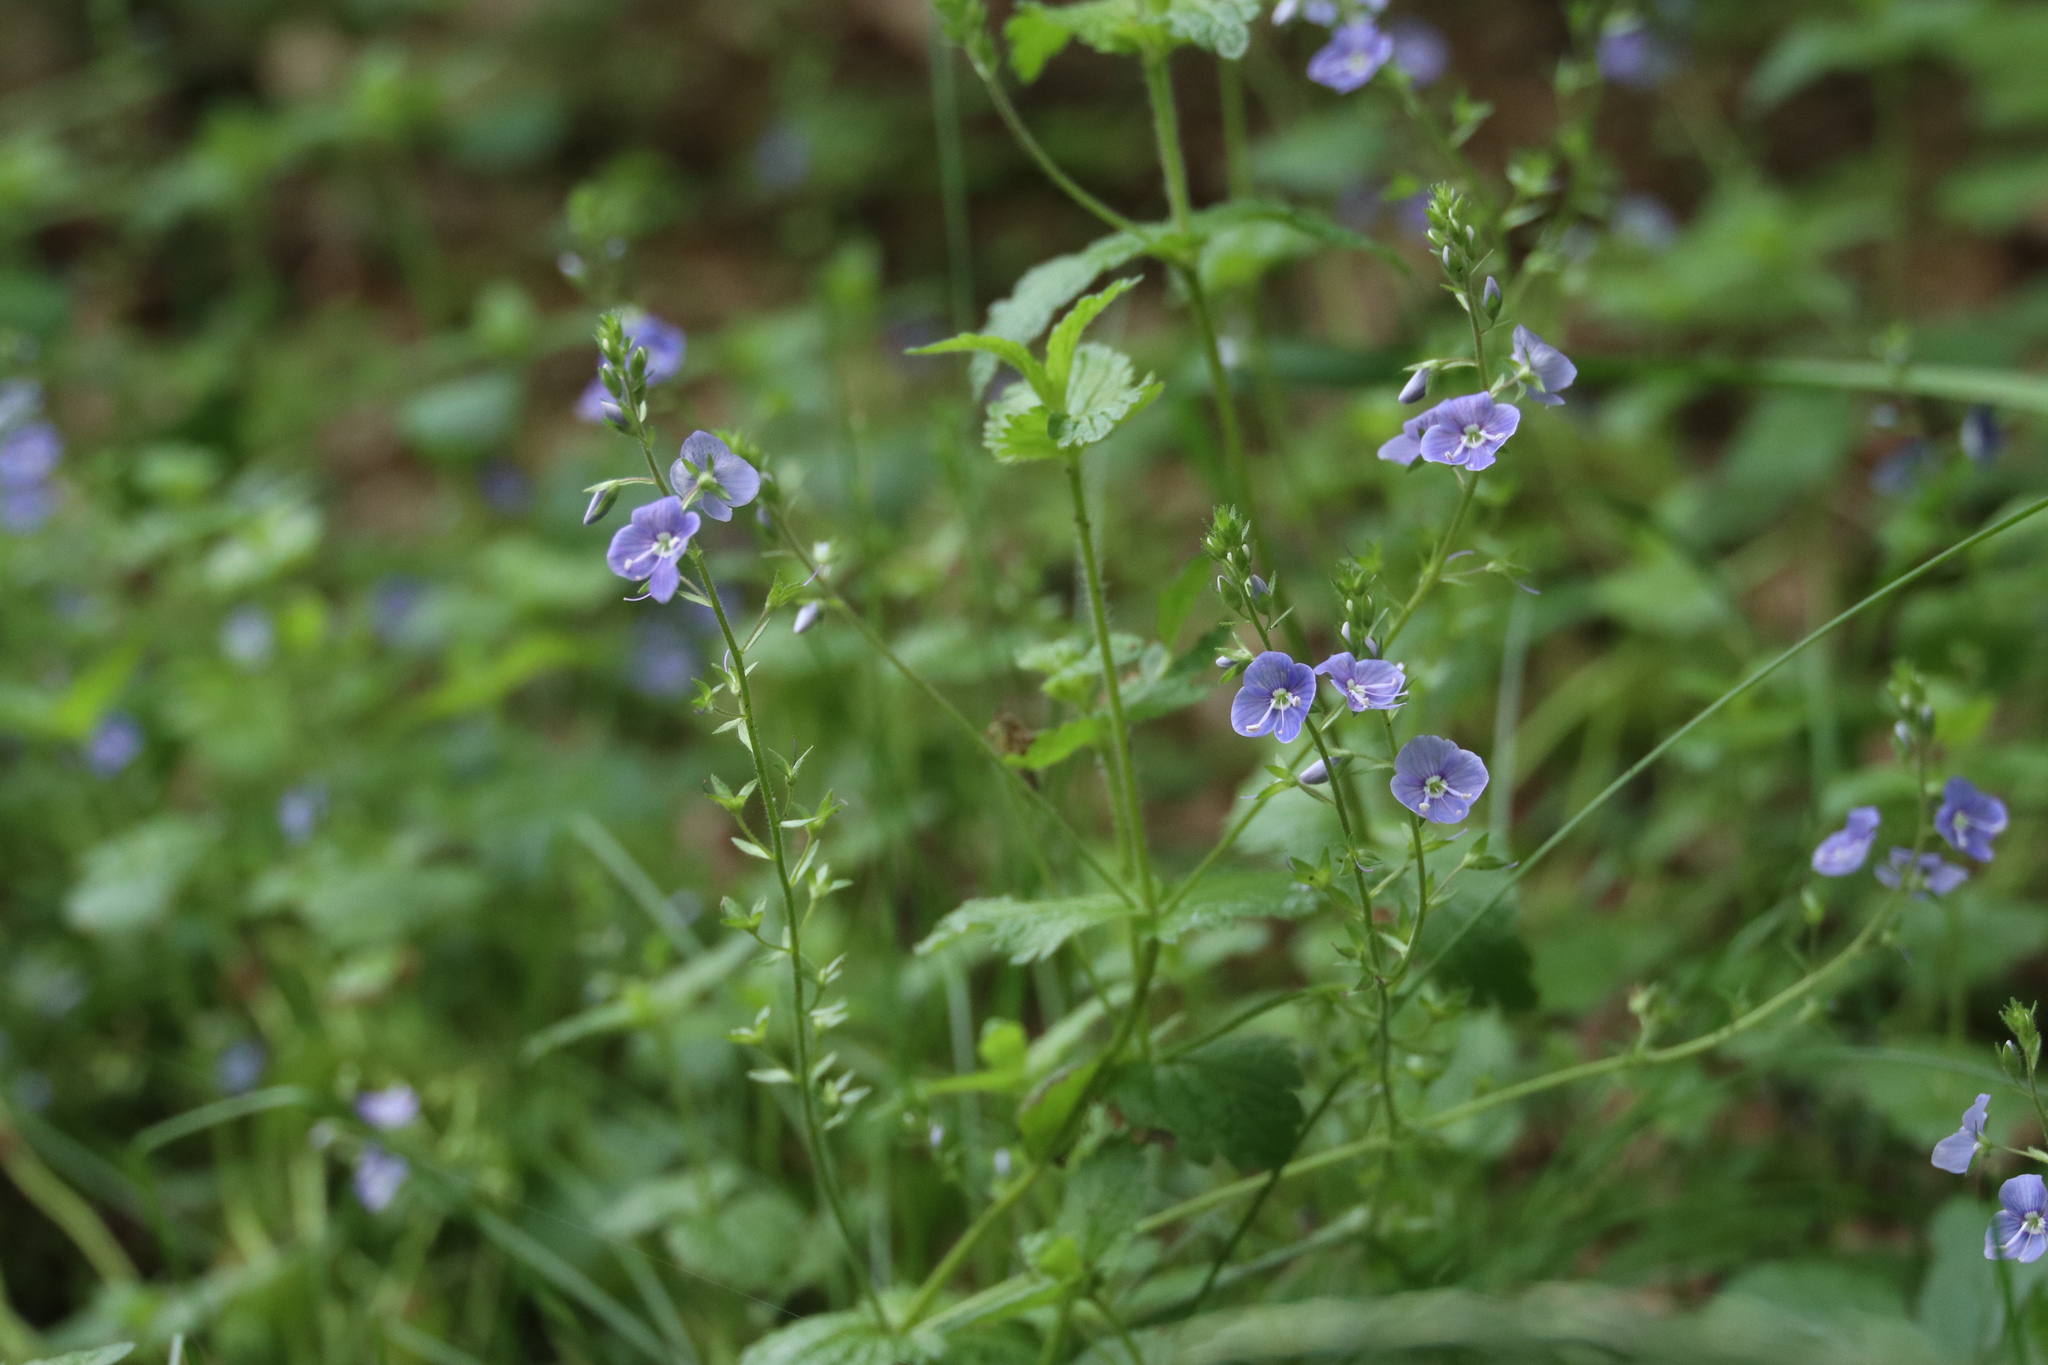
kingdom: Plantae
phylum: Tracheophyta
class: Magnoliopsida
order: Lamiales
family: Plantaginaceae
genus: Veronica
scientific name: Veronica chamaedrys
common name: Germander speedwell
